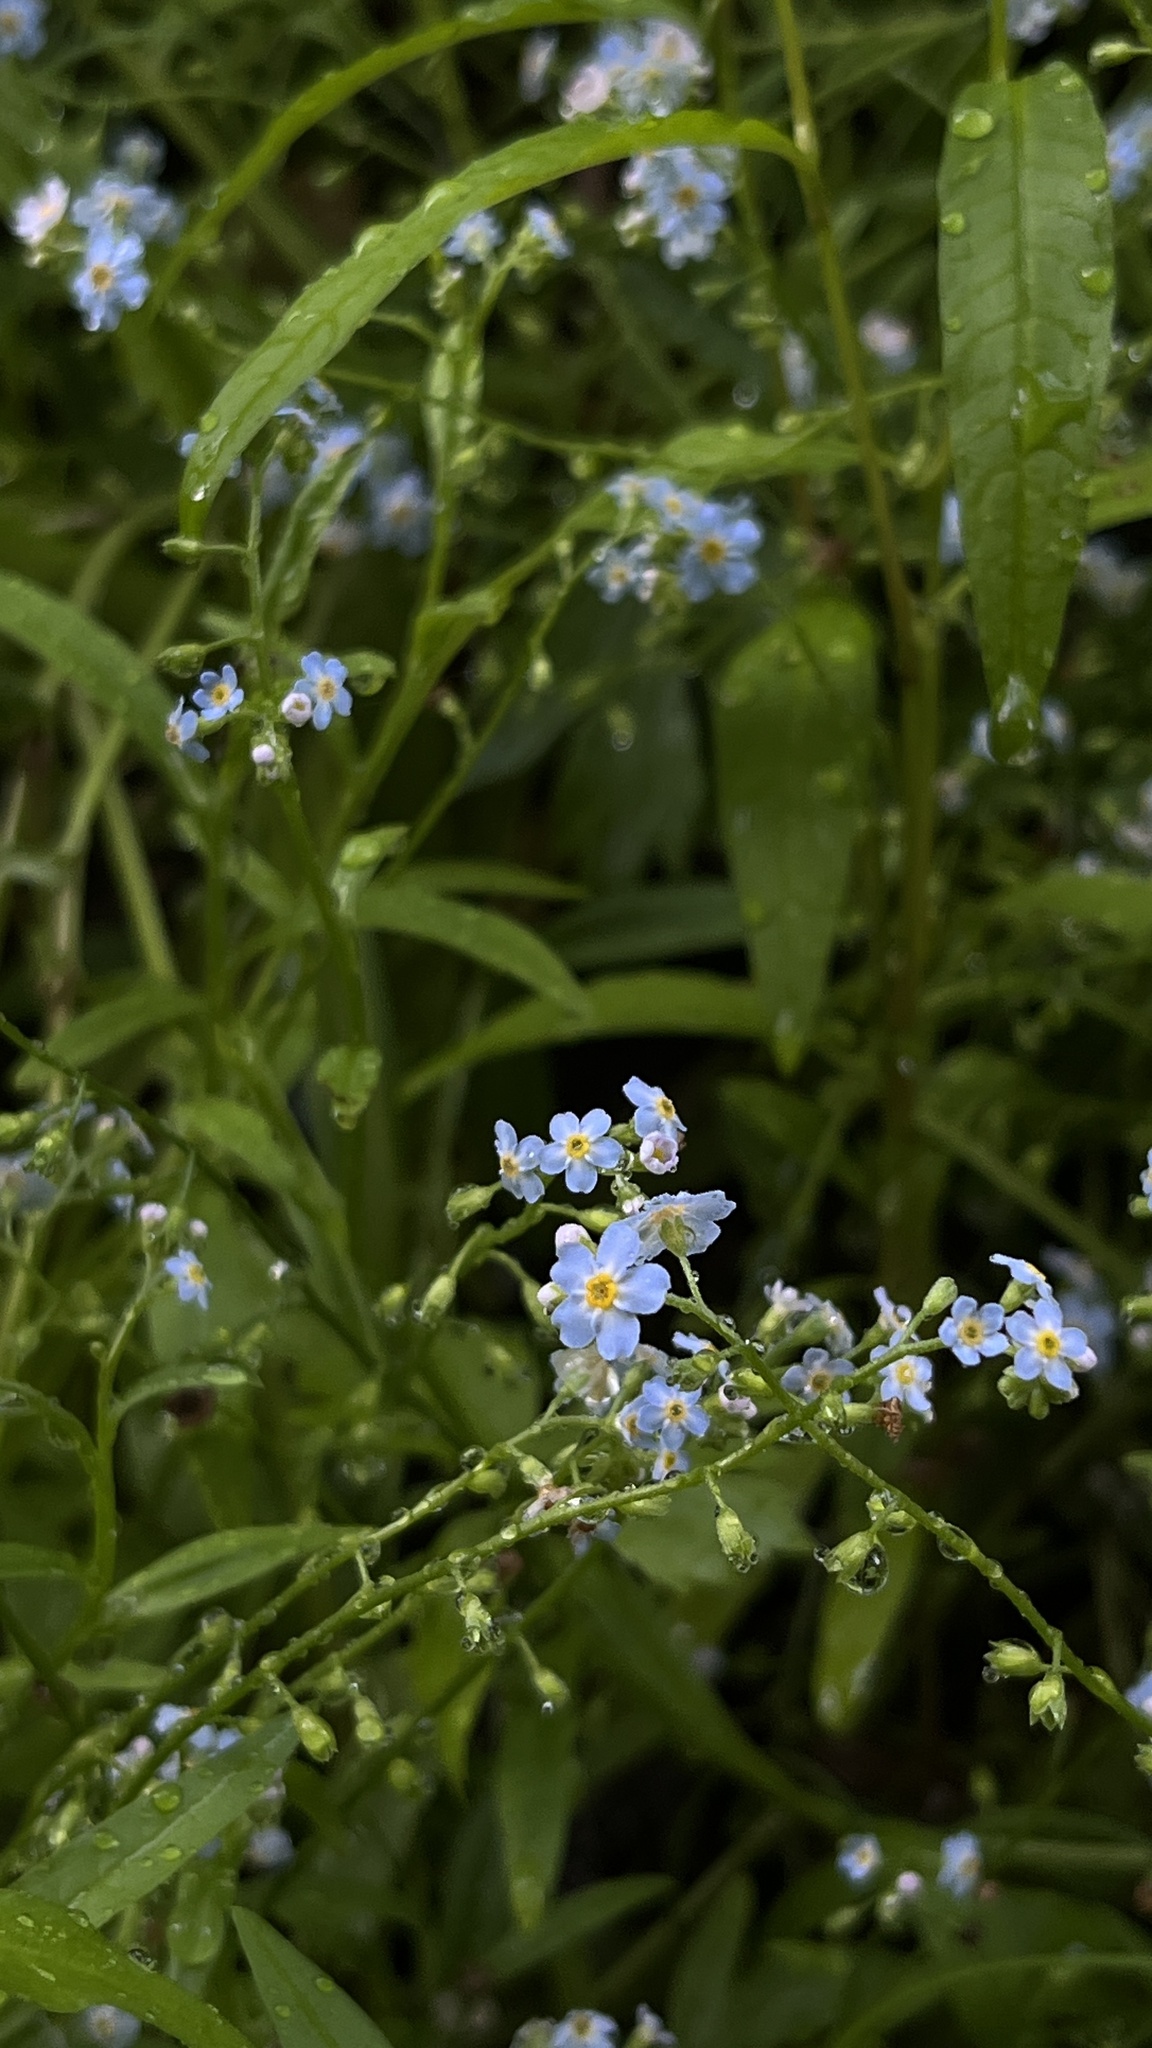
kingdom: Plantae
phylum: Tracheophyta
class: Magnoliopsida
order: Boraginales
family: Boraginaceae
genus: Myosotis
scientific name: Myosotis scorpioides
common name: Water forget-me-not
